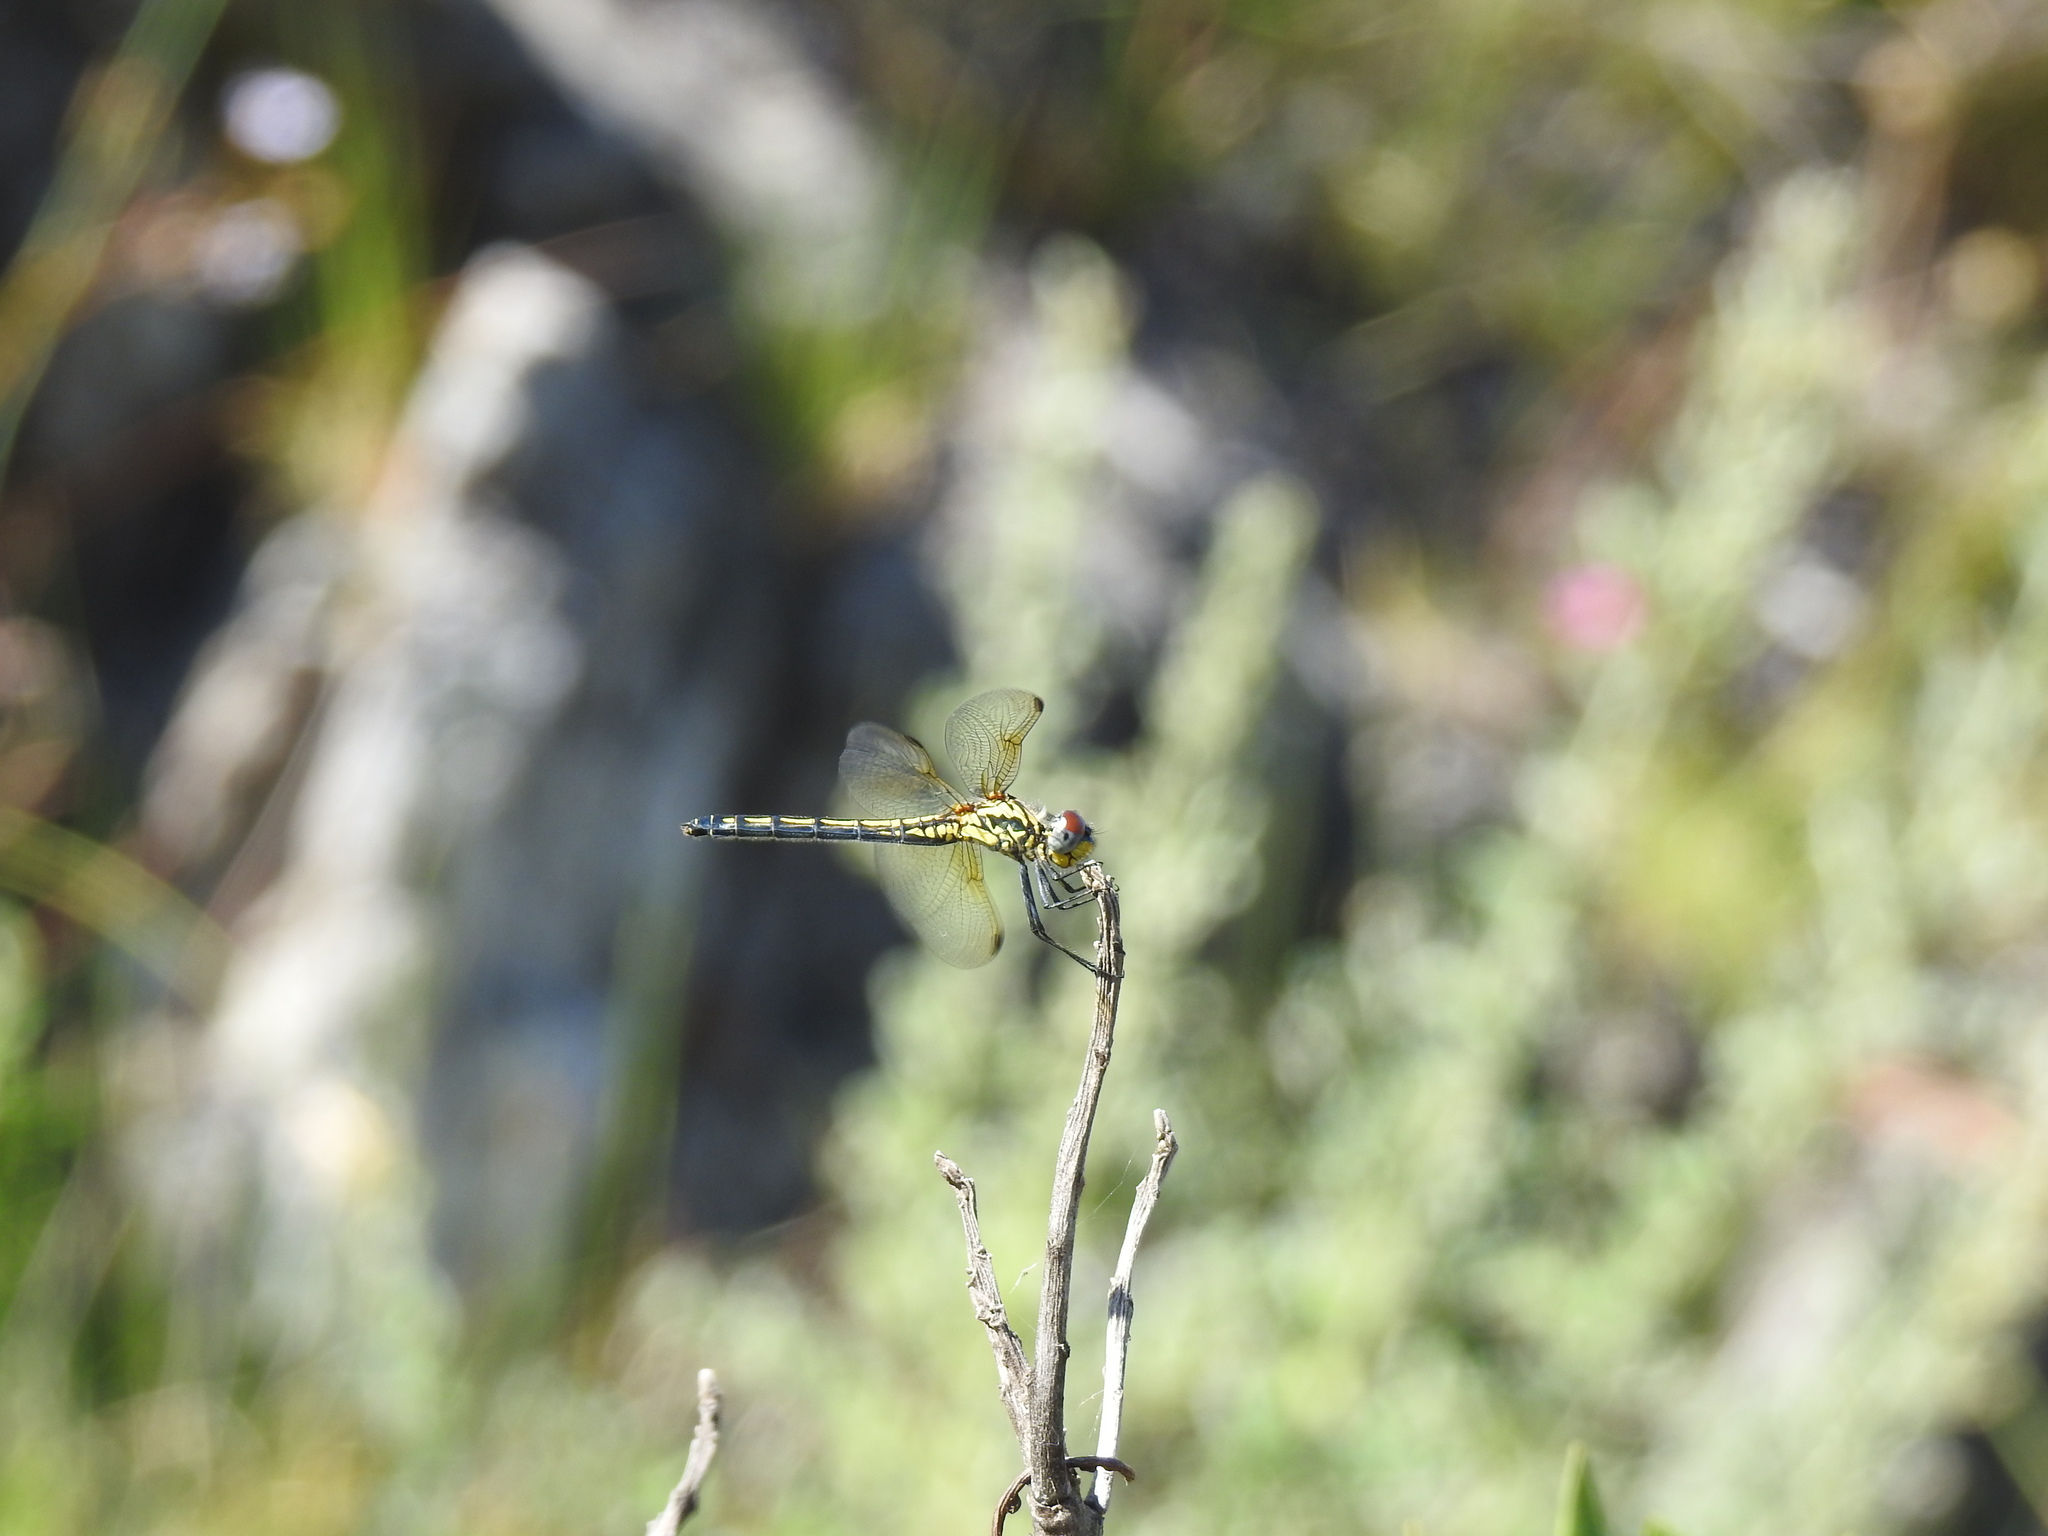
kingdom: Animalia
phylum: Arthropoda
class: Insecta
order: Odonata
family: Libellulidae
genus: Trithemis
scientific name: Trithemis stictica
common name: Jaunty dropwing
